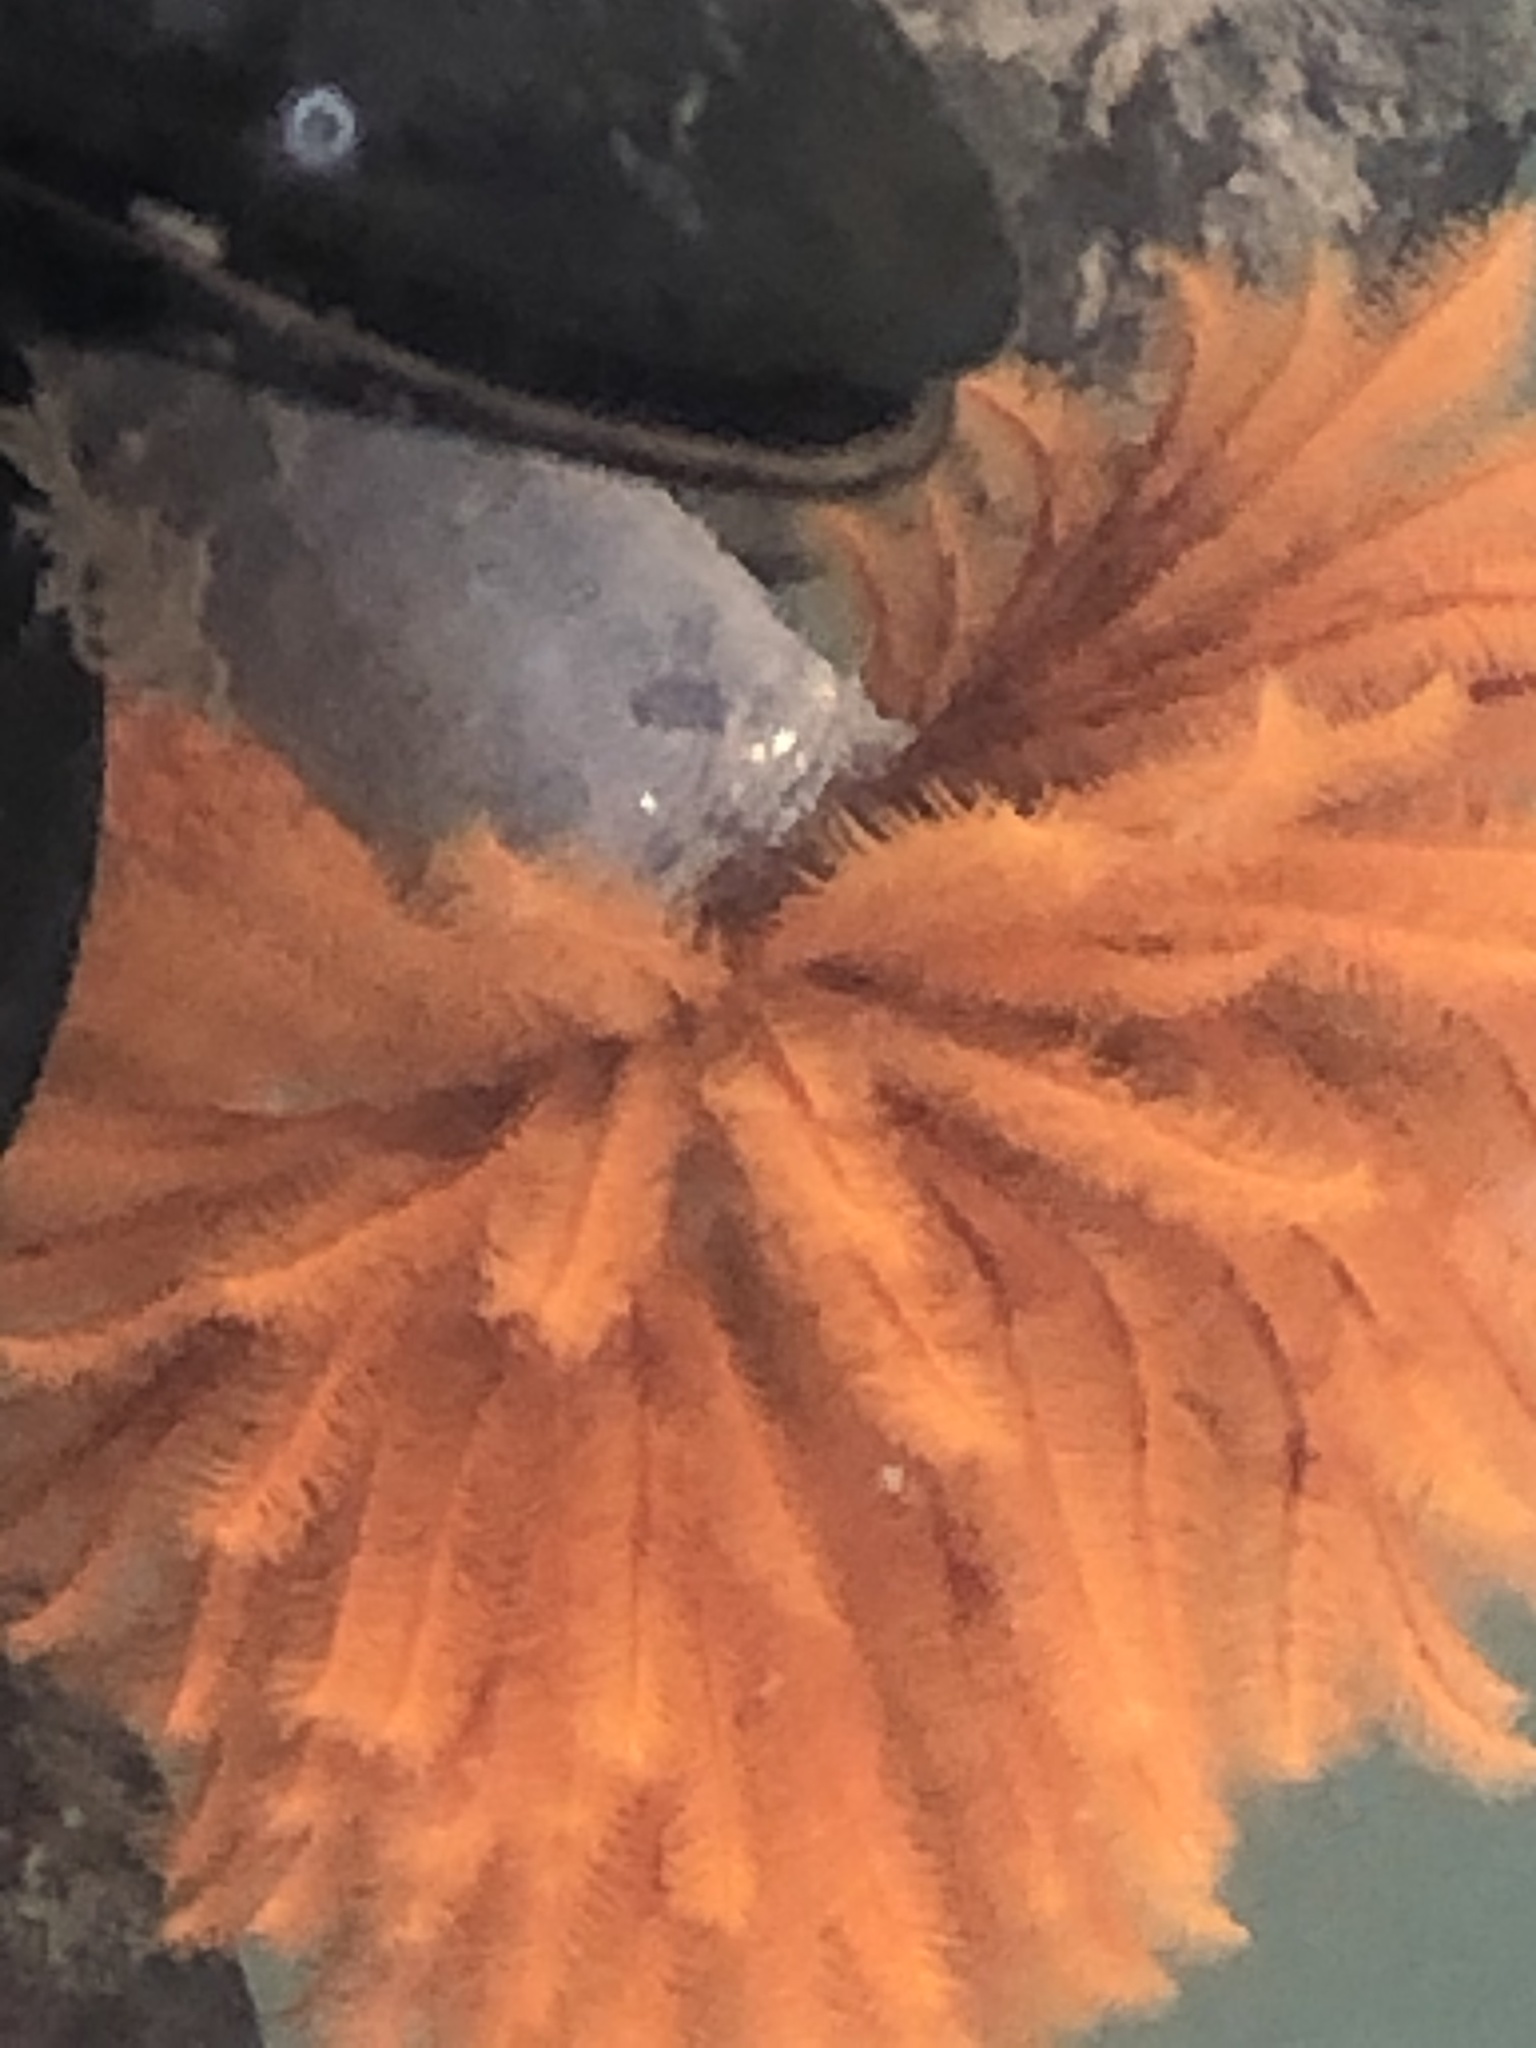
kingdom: Animalia
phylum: Annelida
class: Polychaeta
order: Sabellida
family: Sabellidae
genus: Eudistylia
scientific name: Eudistylia polymorpha
